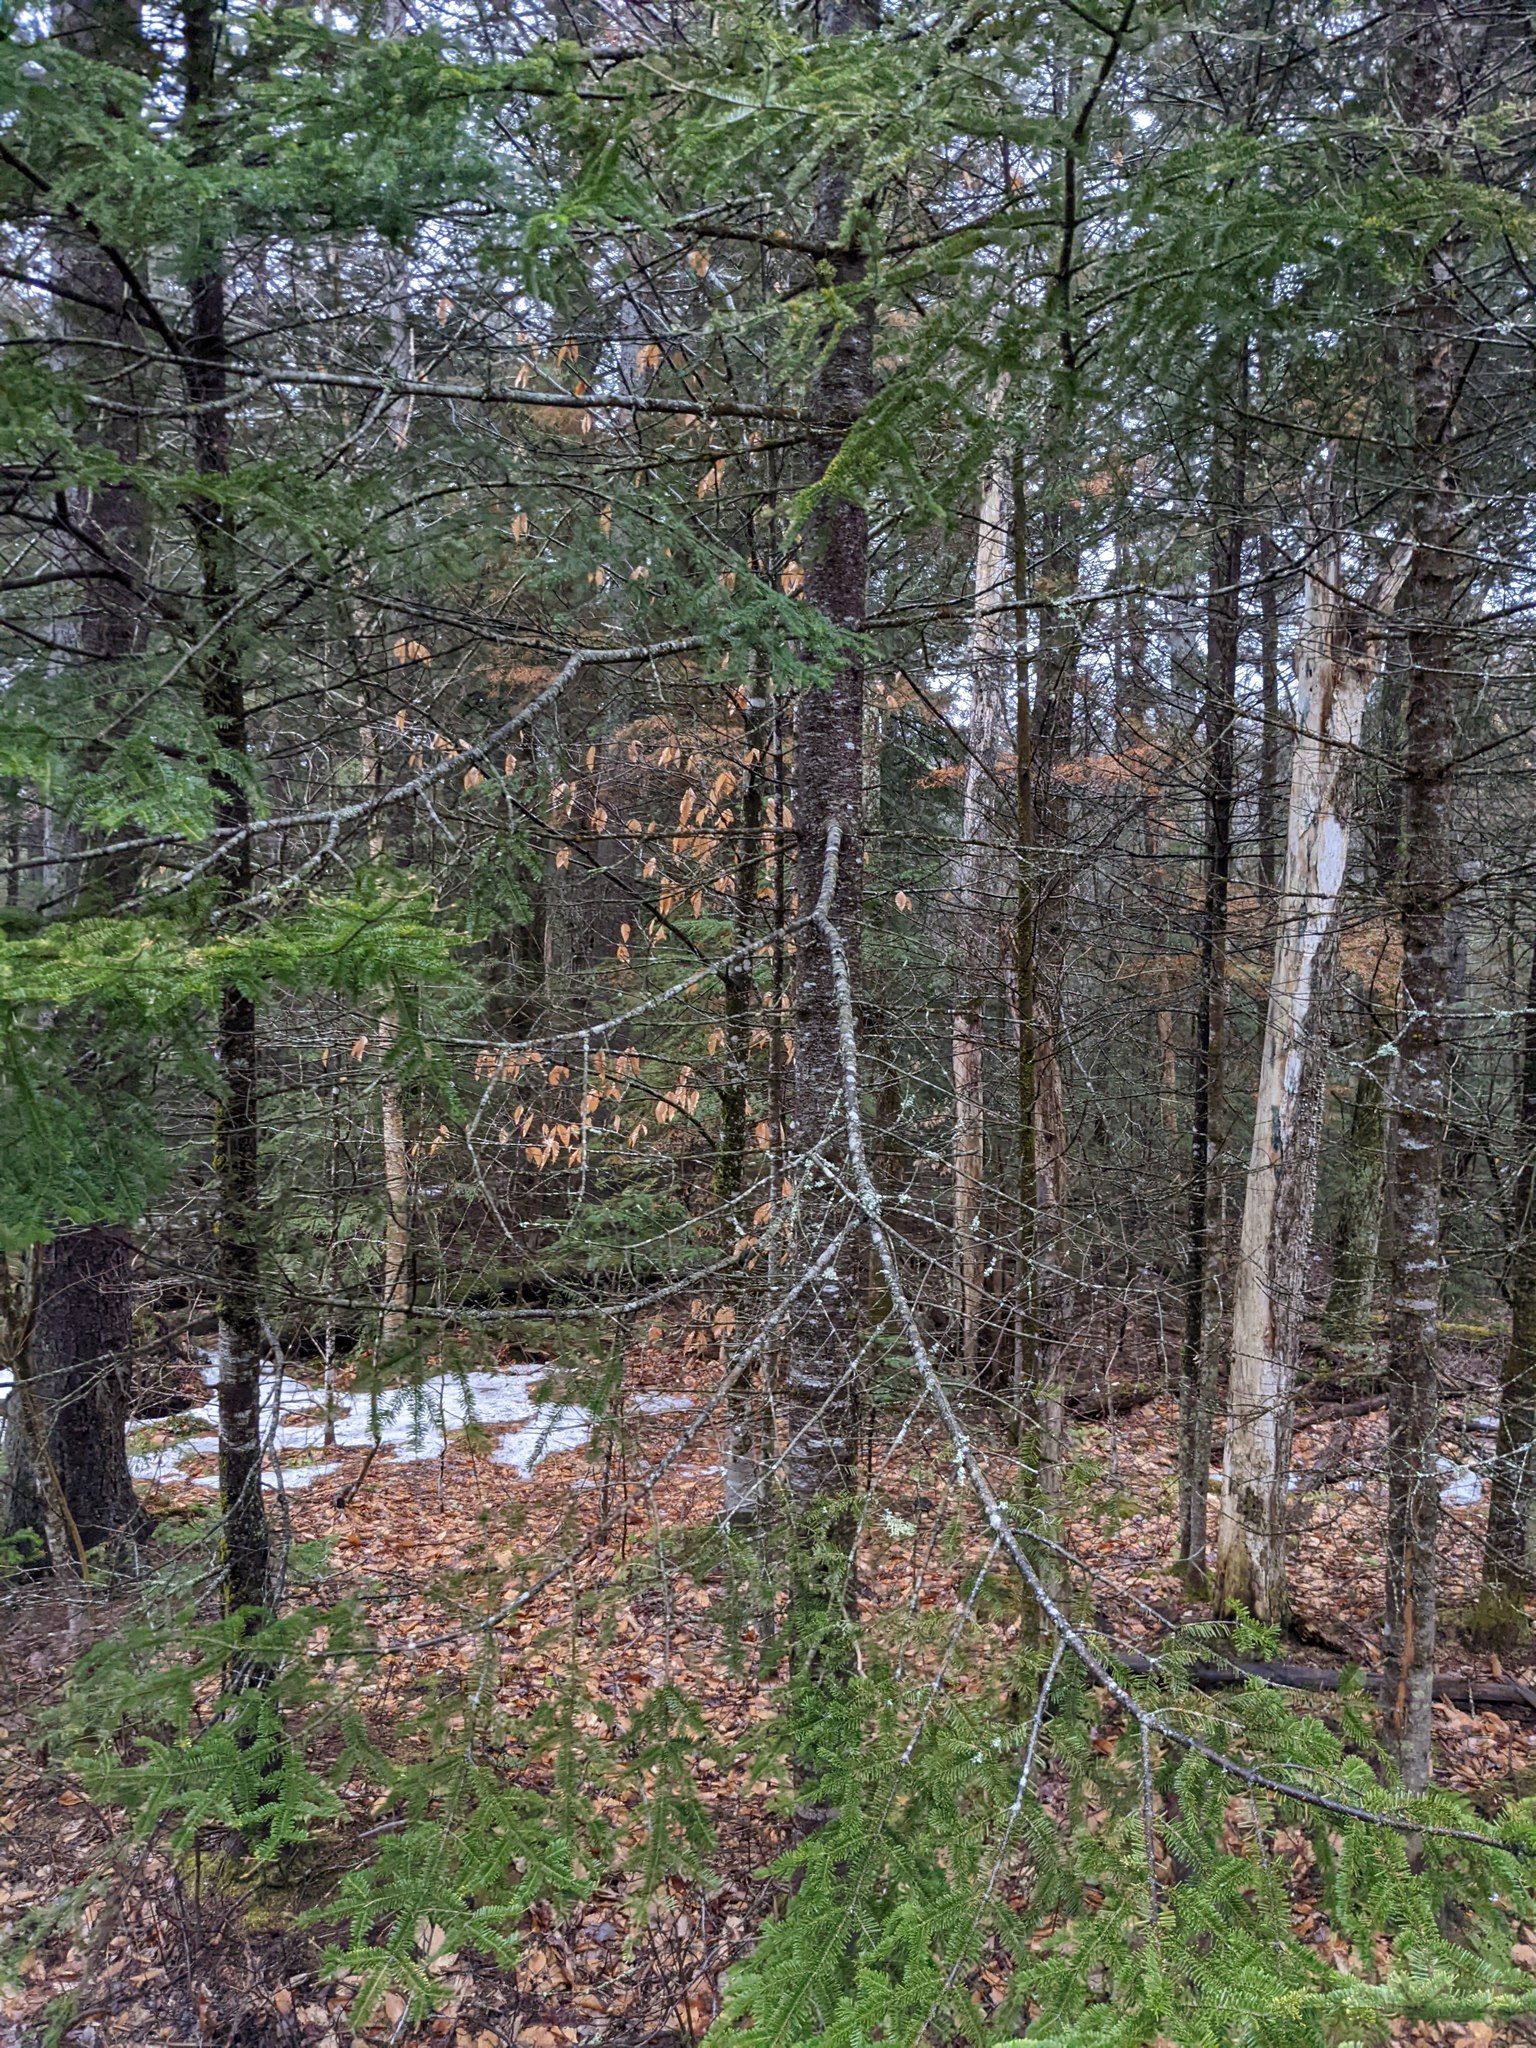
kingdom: Plantae
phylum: Tracheophyta
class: Magnoliopsida
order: Fagales
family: Fagaceae
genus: Fagus
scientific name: Fagus grandifolia
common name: American beech
